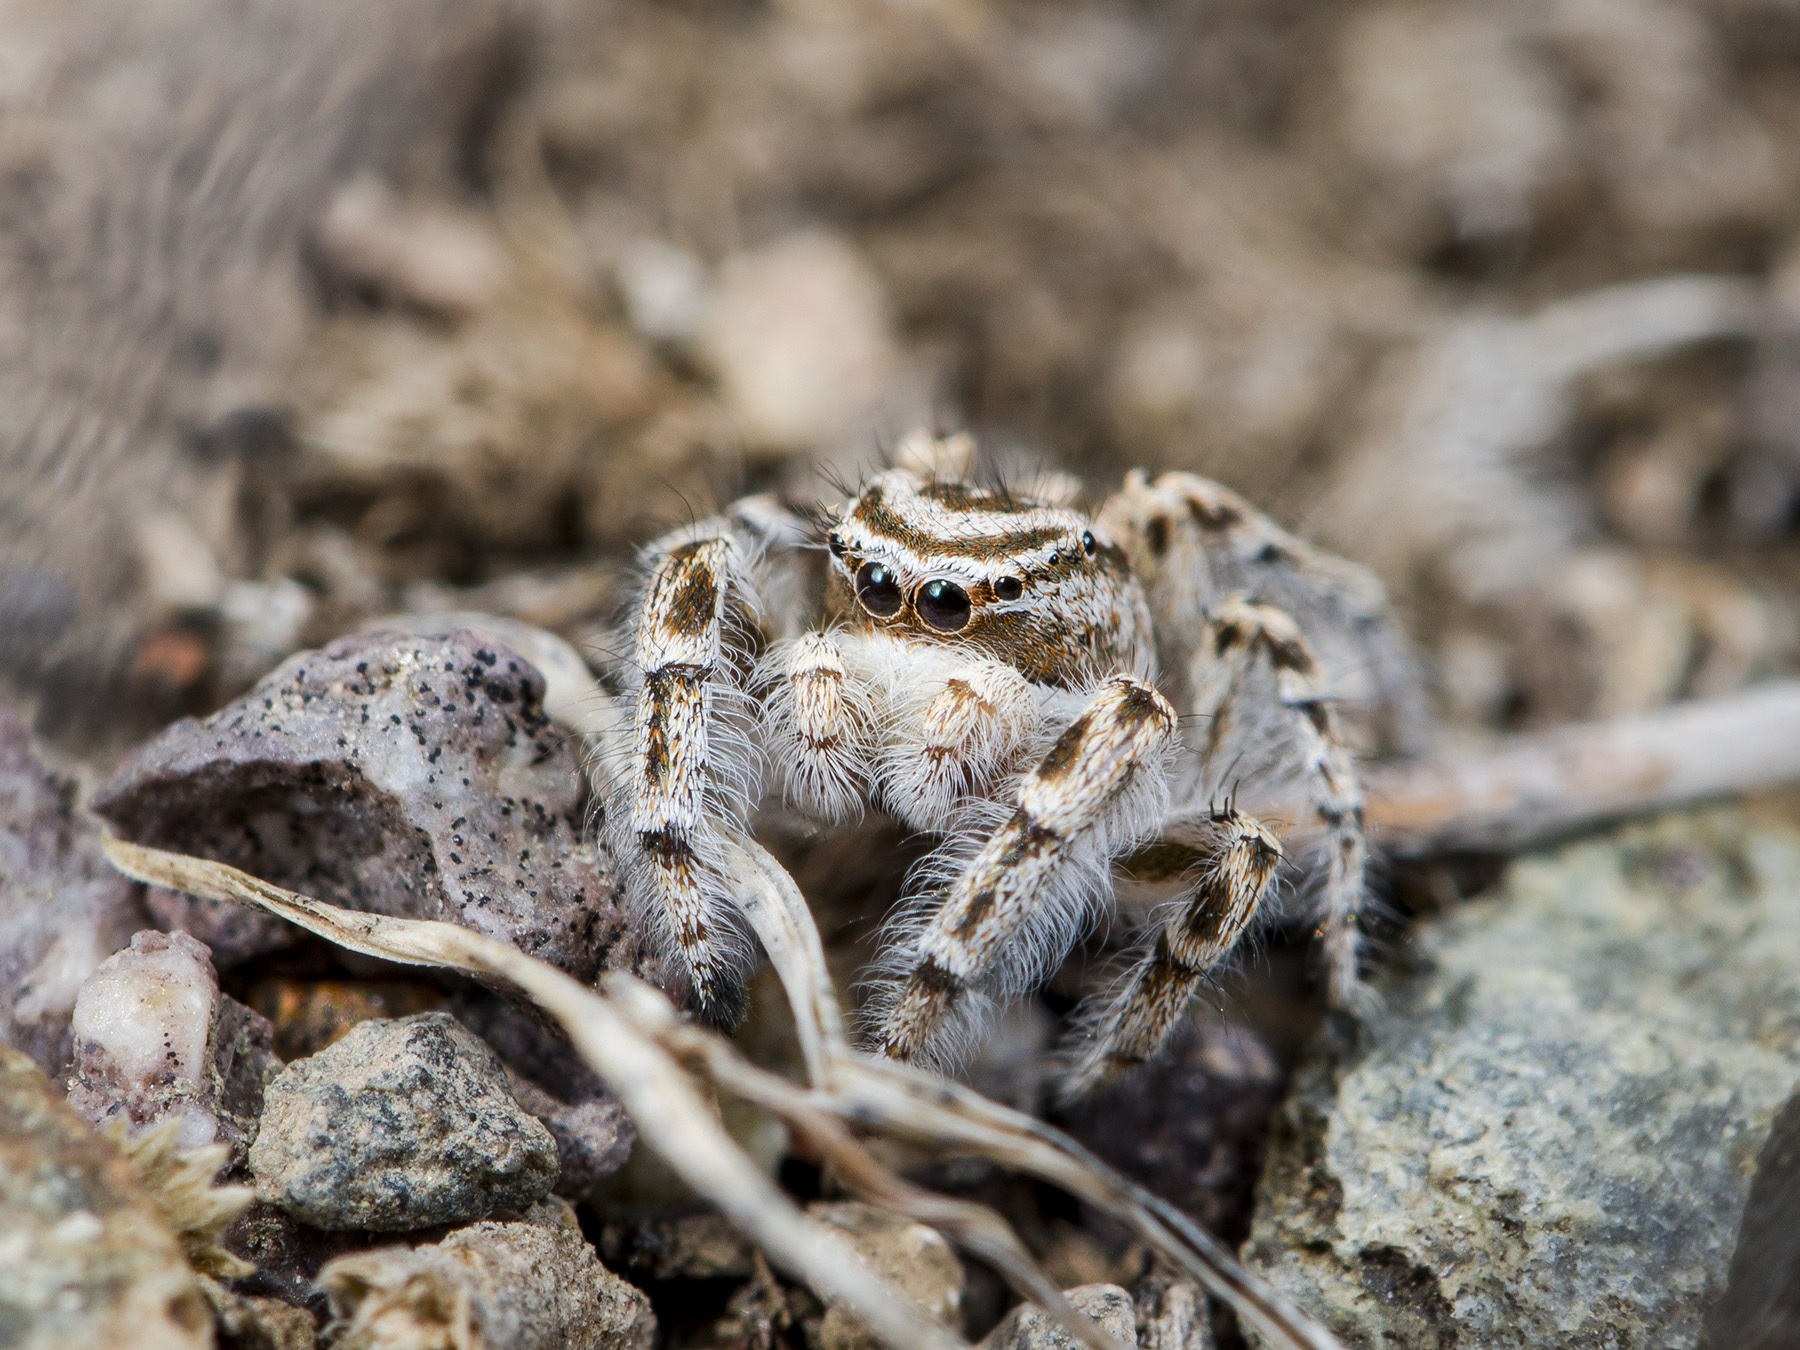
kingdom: Animalia
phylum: Arthropoda
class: Arachnida
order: Araneae
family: Salticidae
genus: Pseudomogrus
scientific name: Pseudomogrus zhilgaensis
